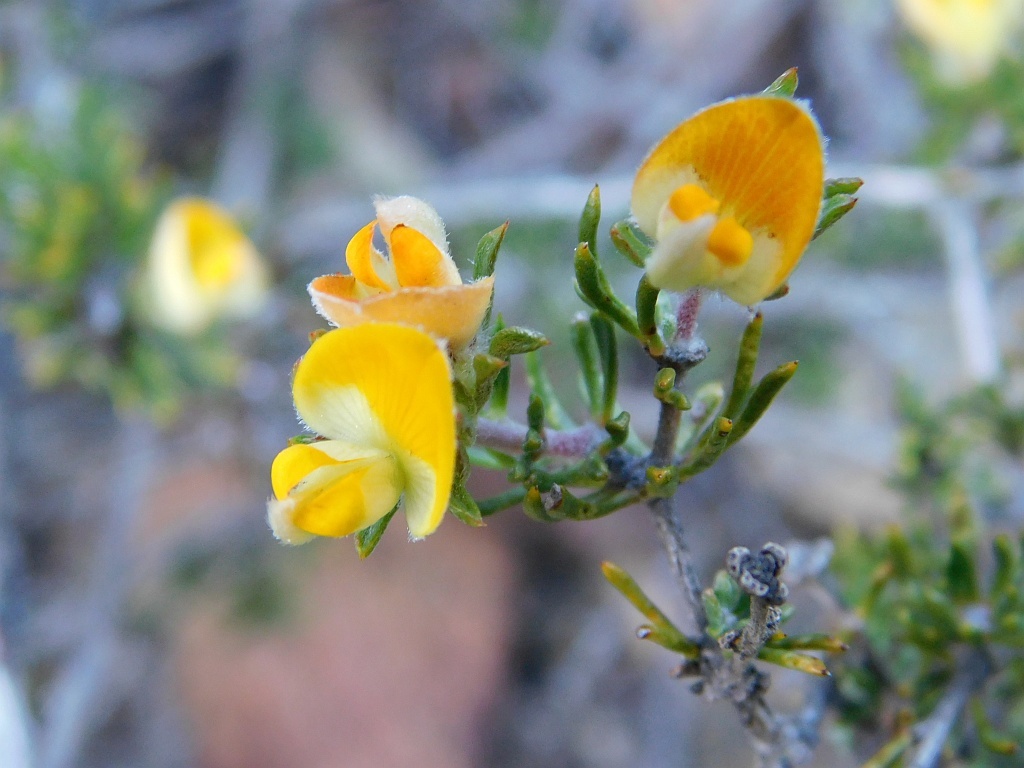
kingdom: Plantae
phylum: Tracheophyta
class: Magnoliopsida
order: Fabales
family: Fabaceae
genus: Aspalathus
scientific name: Aspalathus stenophylla
